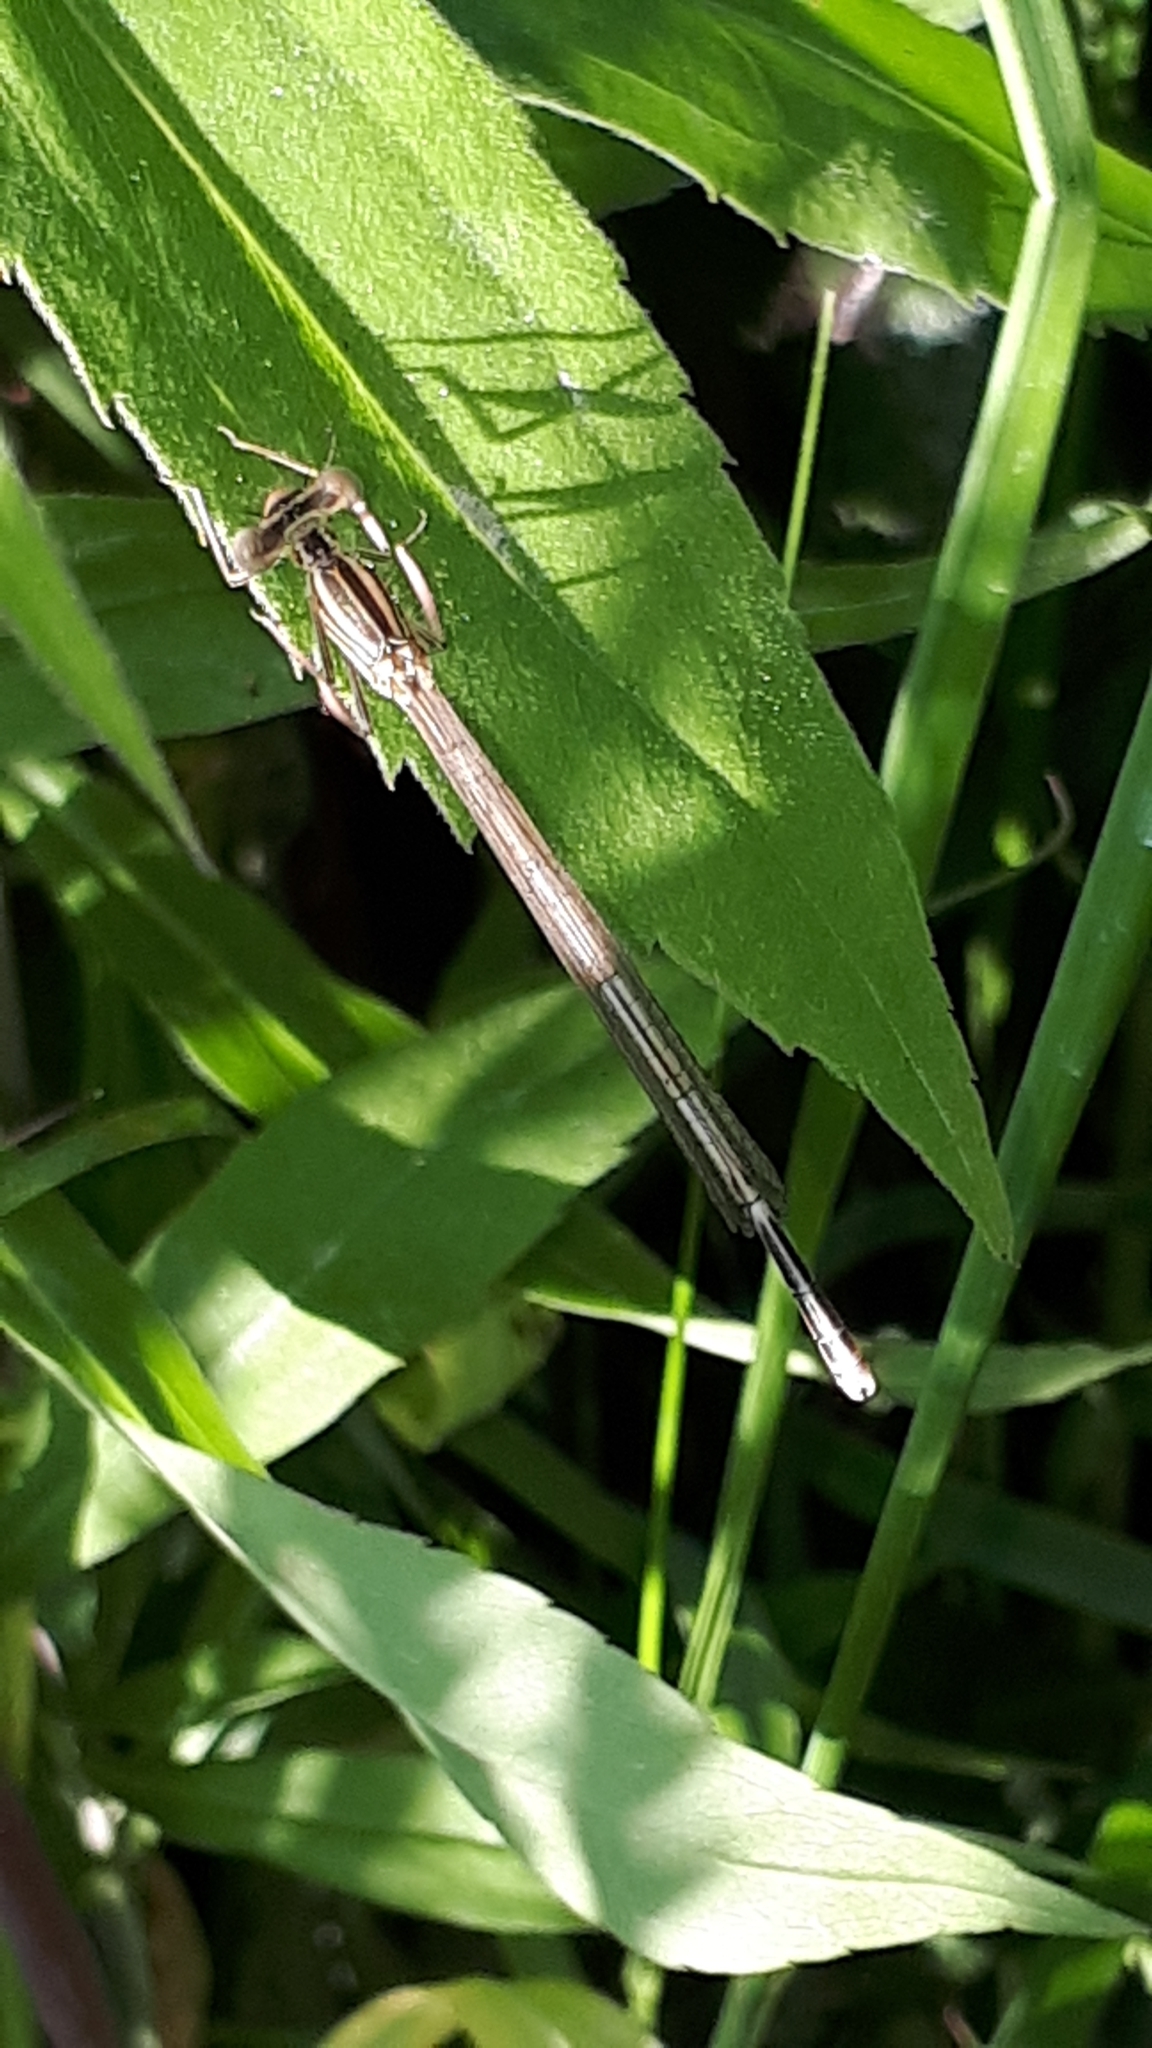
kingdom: Animalia
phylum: Arthropoda
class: Insecta
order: Odonata
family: Platycnemididae
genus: Platycnemis
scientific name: Platycnemis pennipes
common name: White-legged damselfly
